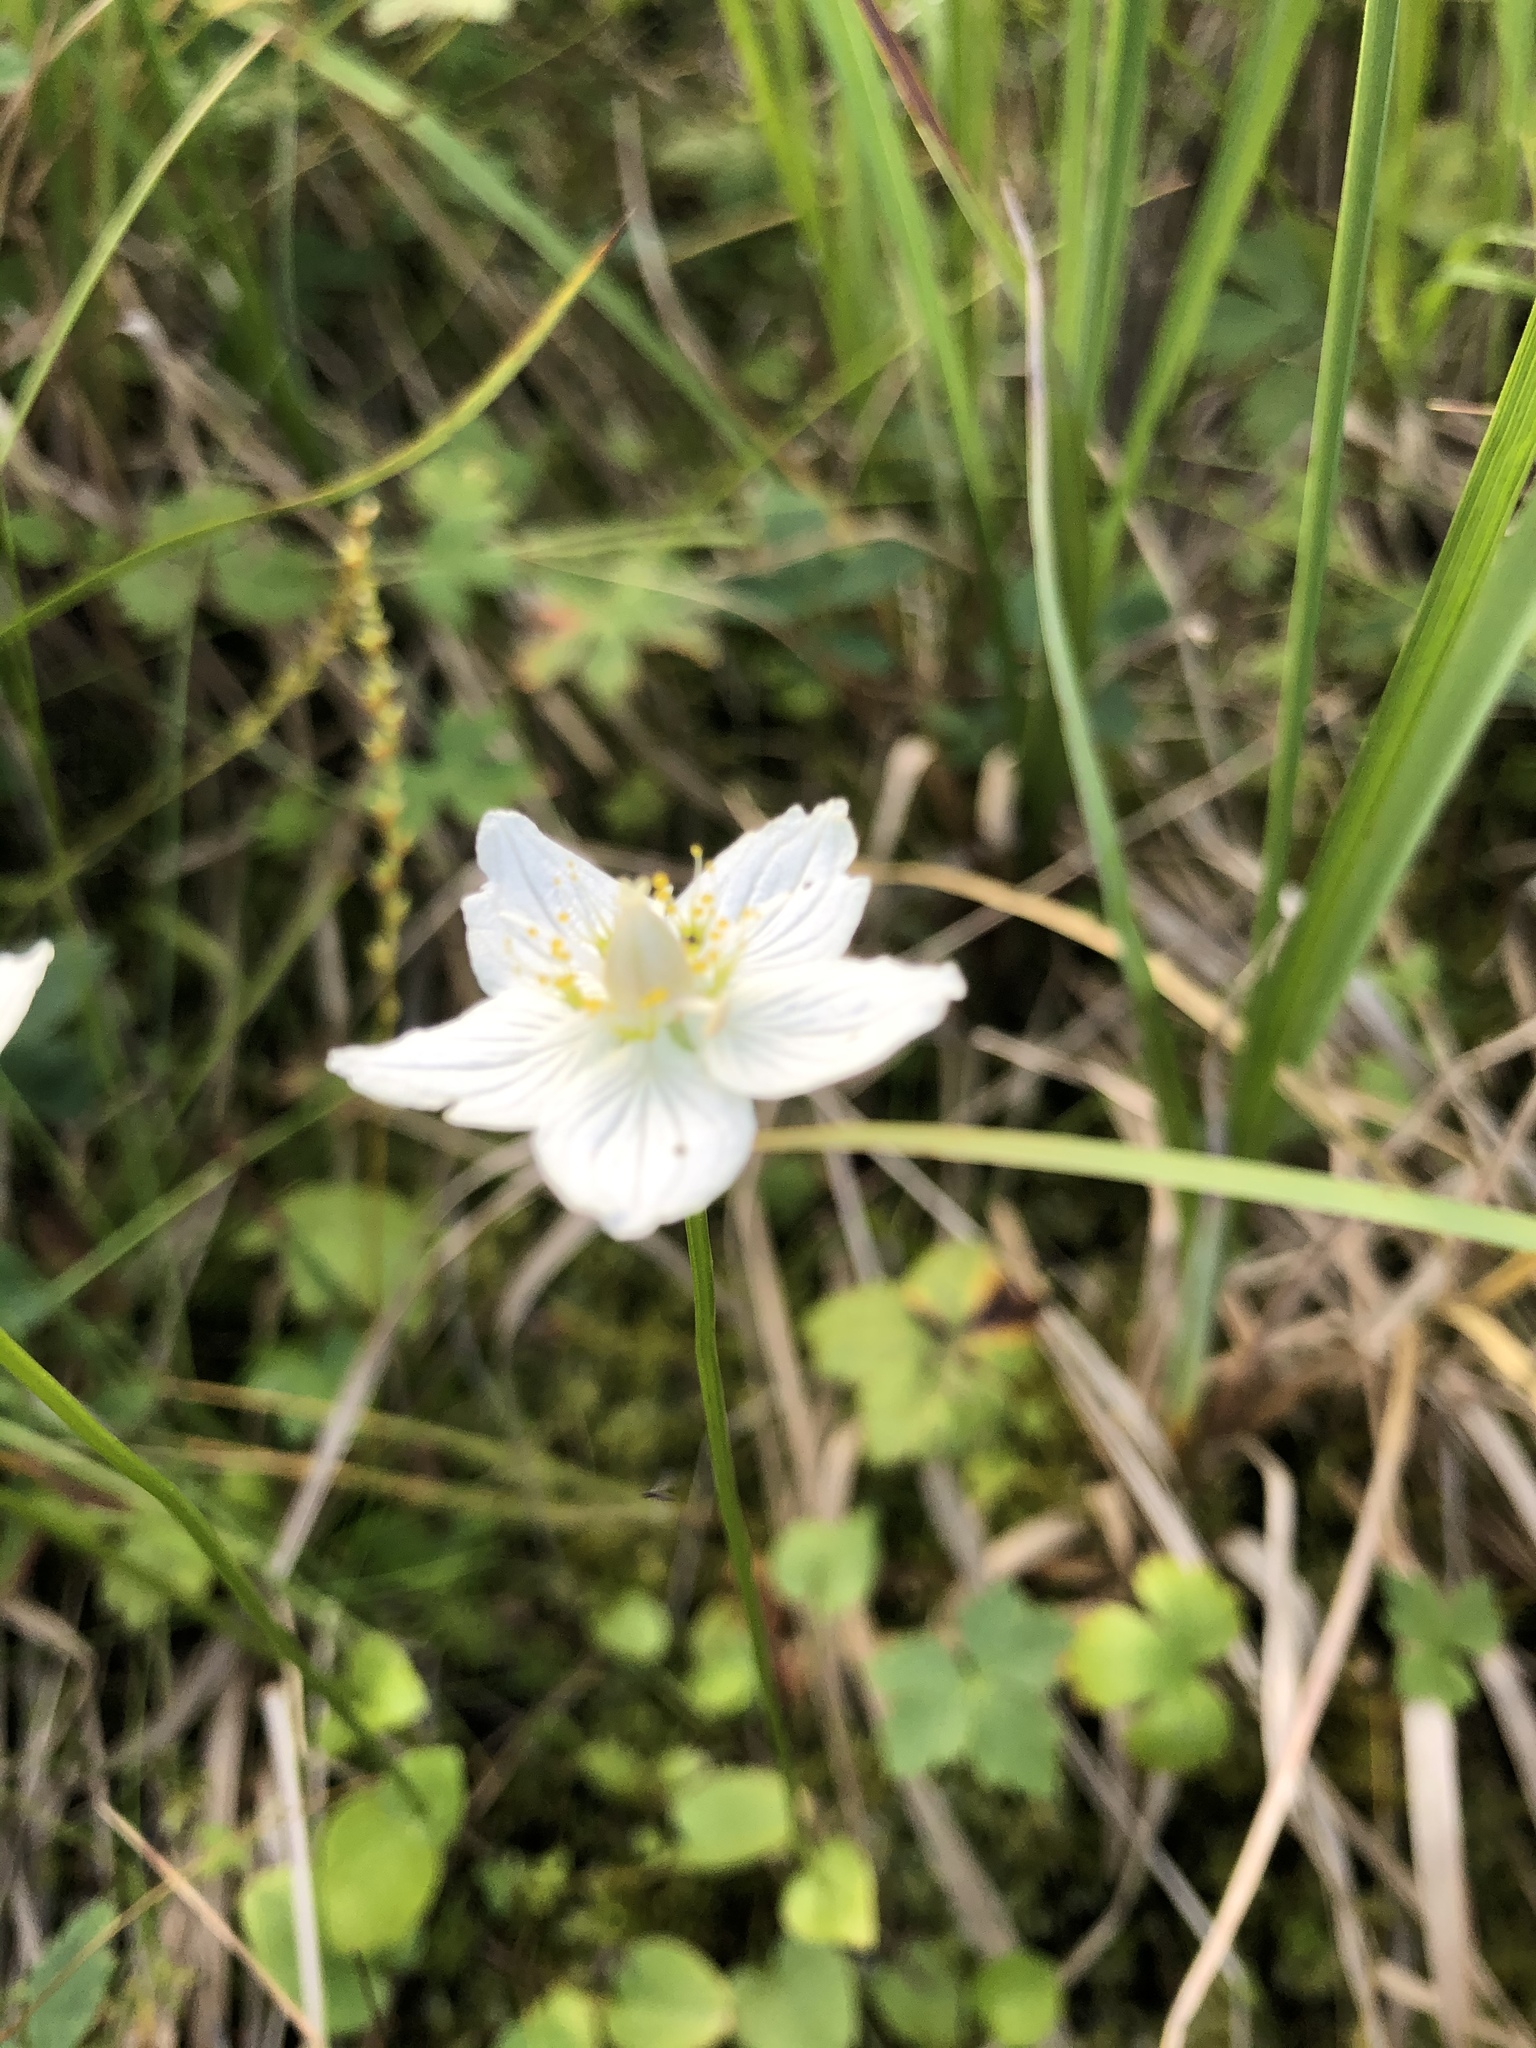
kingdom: Plantae
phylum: Tracheophyta
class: Magnoliopsida
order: Celastrales
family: Parnassiaceae
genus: Parnassia
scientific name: Parnassia palustris
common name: Grass-of-parnassus
